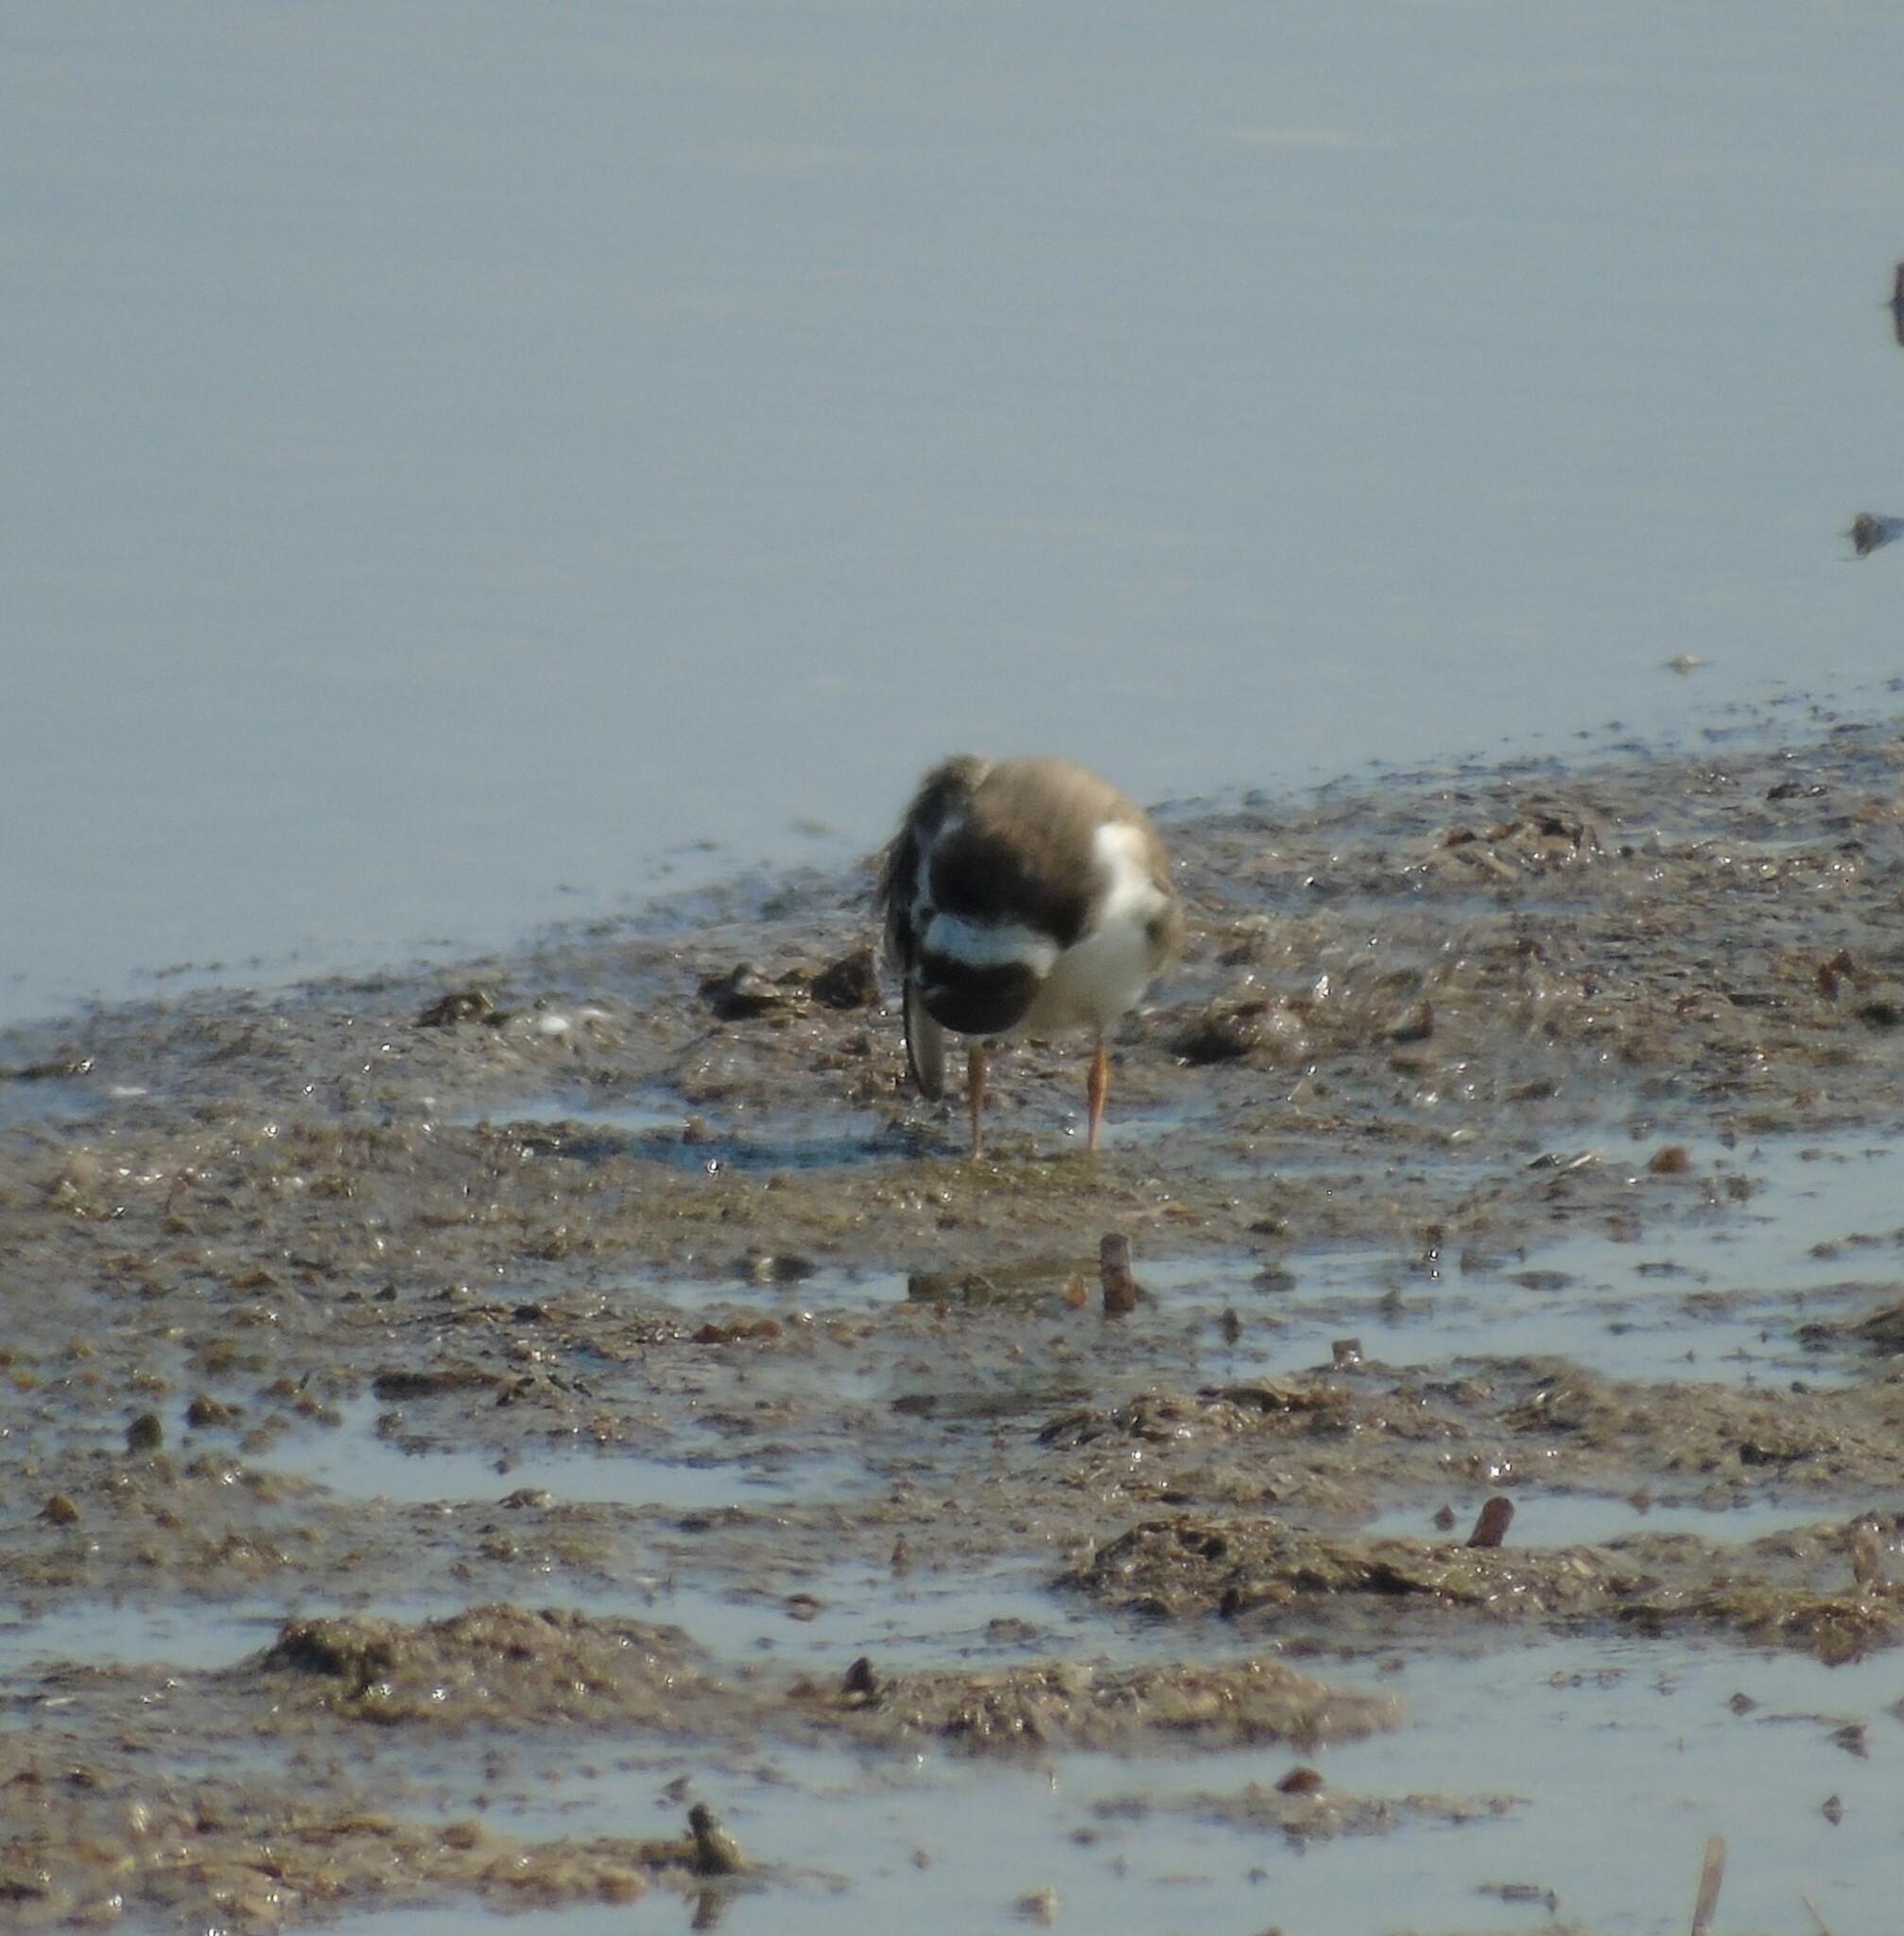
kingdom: Animalia
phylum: Chordata
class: Aves
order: Charadriiformes
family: Charadriidae
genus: Charadrius
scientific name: Charadrius hiaticula
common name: Common ringed plover
